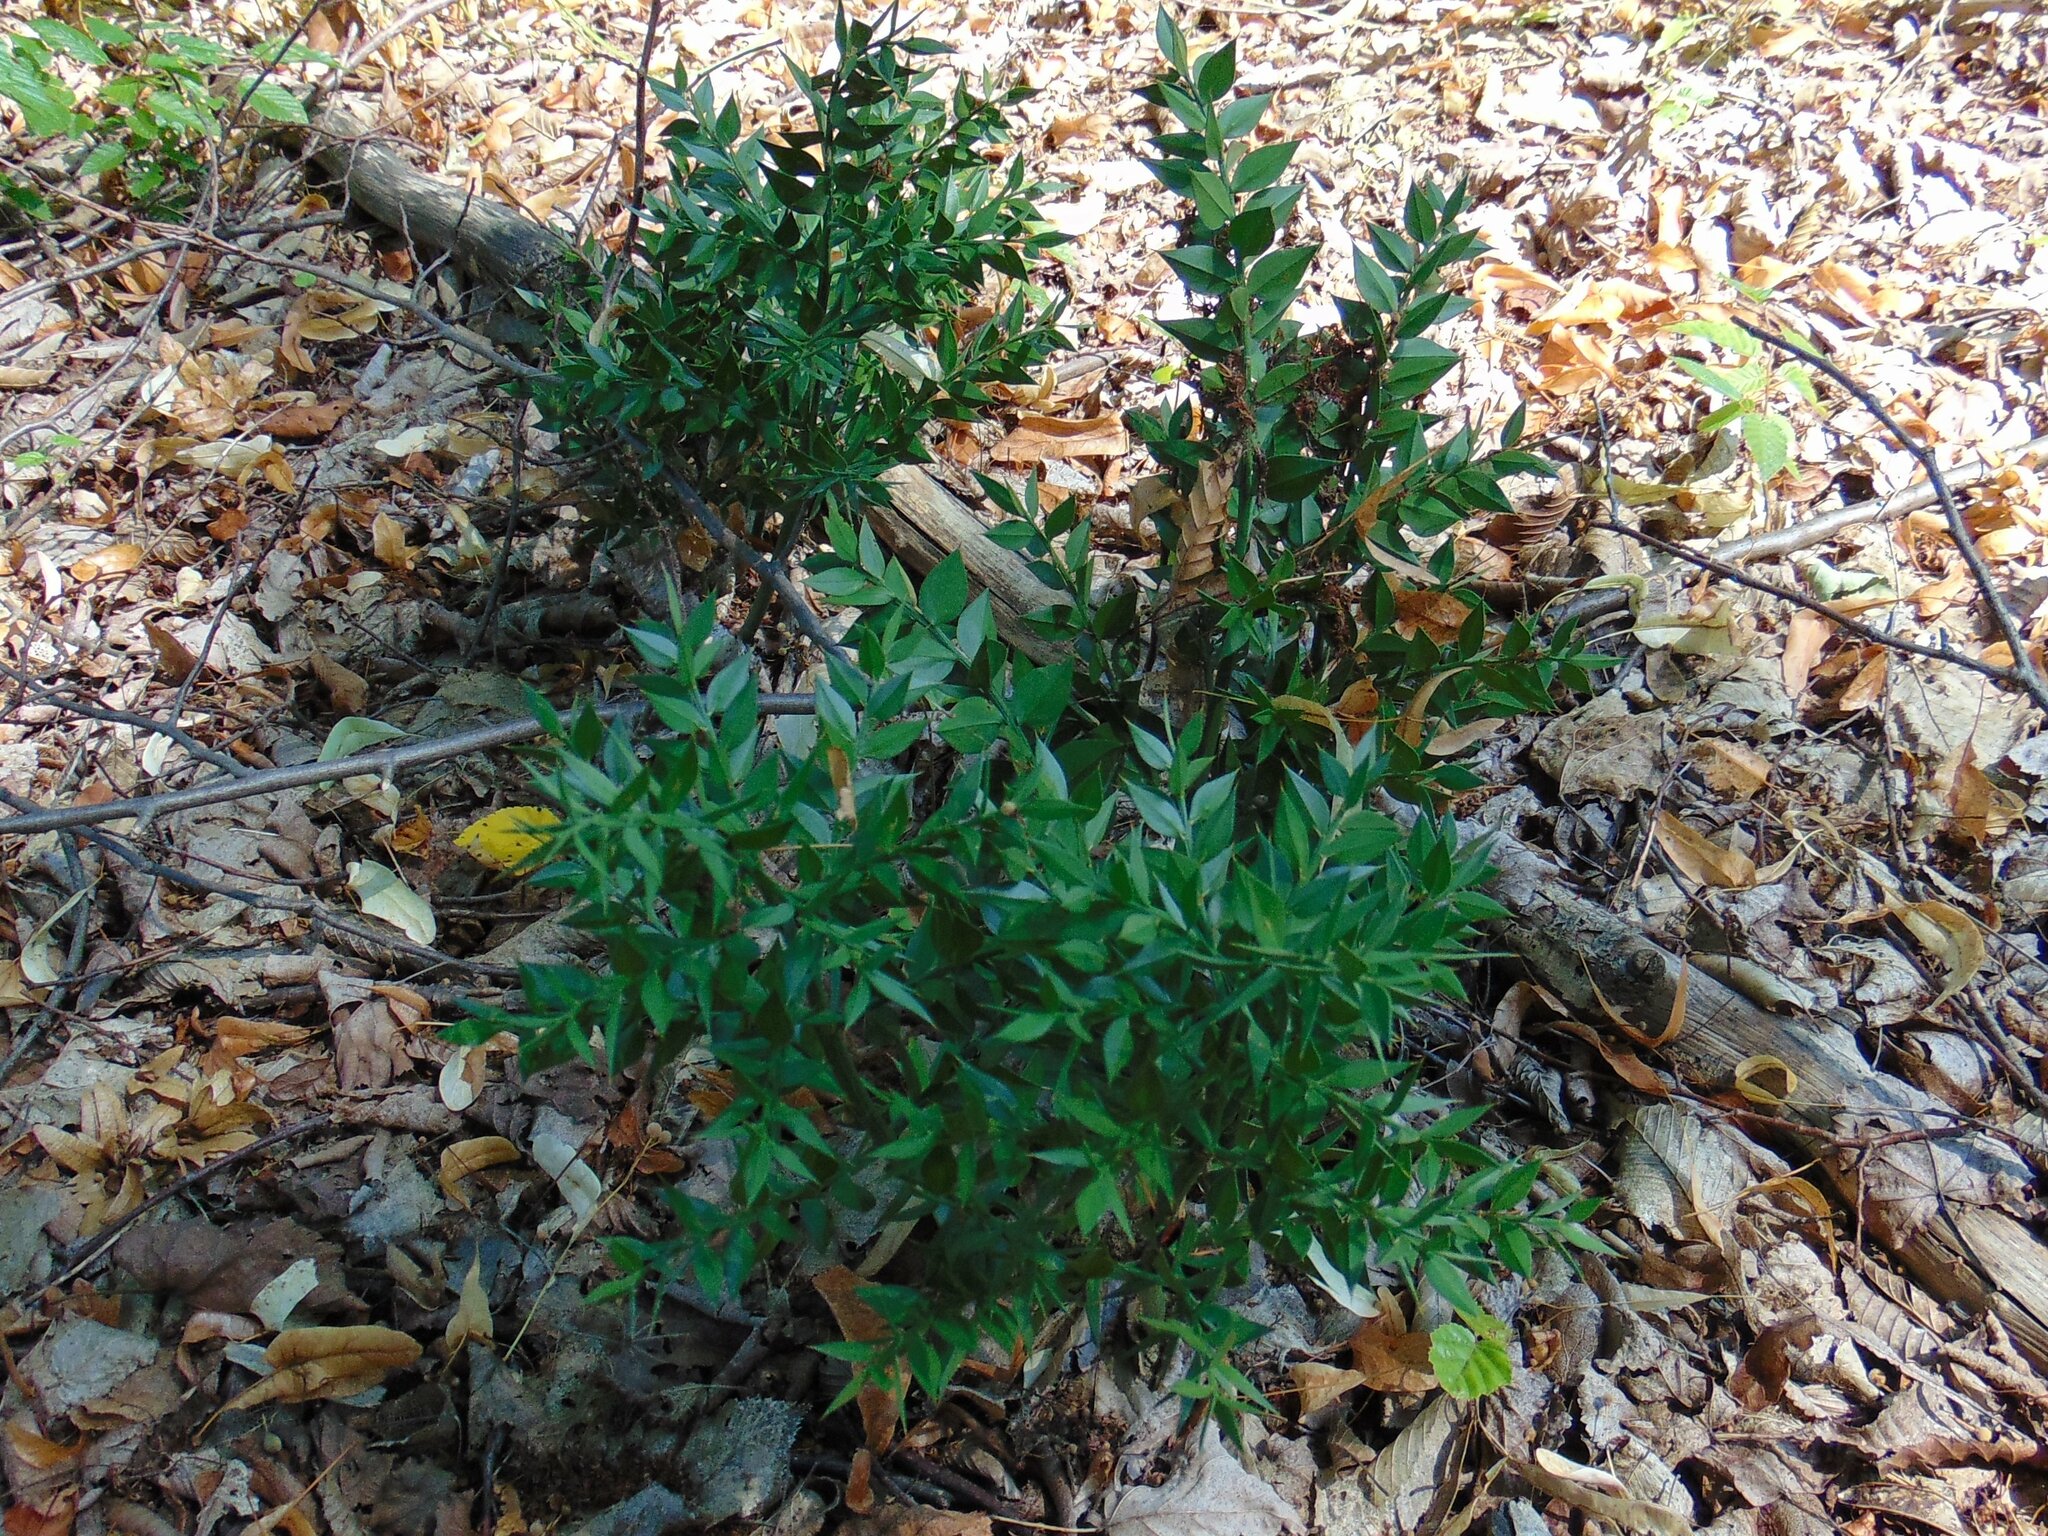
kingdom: Plantae
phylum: Tracheophyta
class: Liliopsida
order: Asparagales
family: Asparagaceae
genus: Ruscus
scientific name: Ruscus aculeatus
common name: Butcher's-broom
